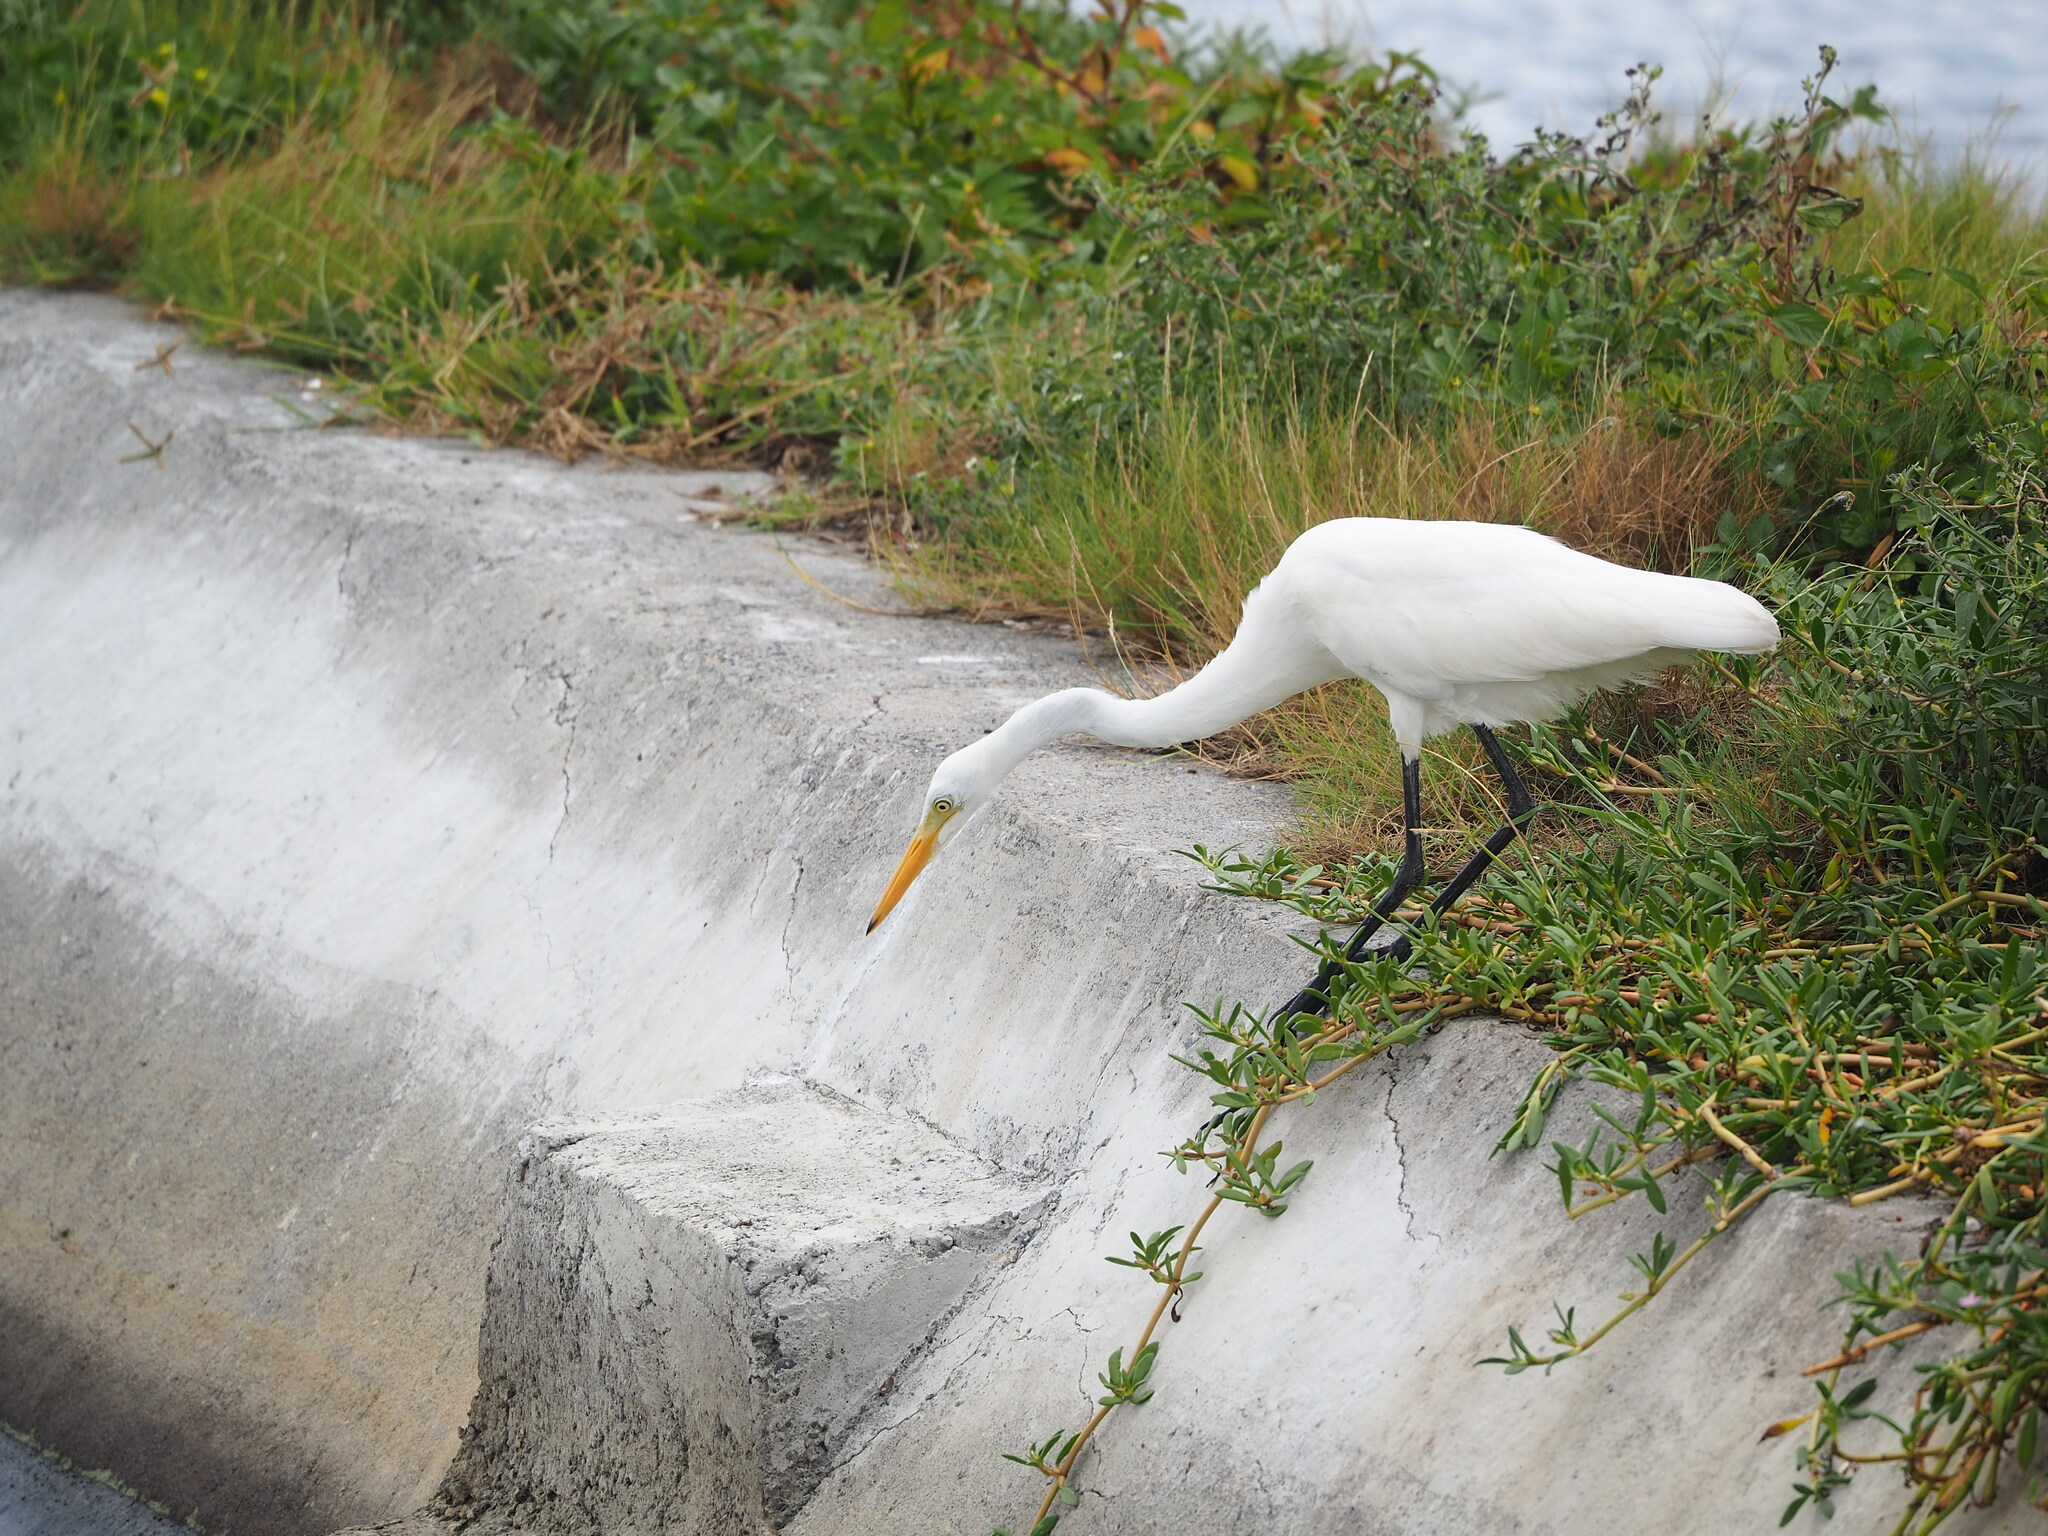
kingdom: Animalia
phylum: Chordata
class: Aves
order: Pelecaniformes
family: Ardeidae
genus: Egretta
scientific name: Egretta intermedia
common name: Intermediate egret
